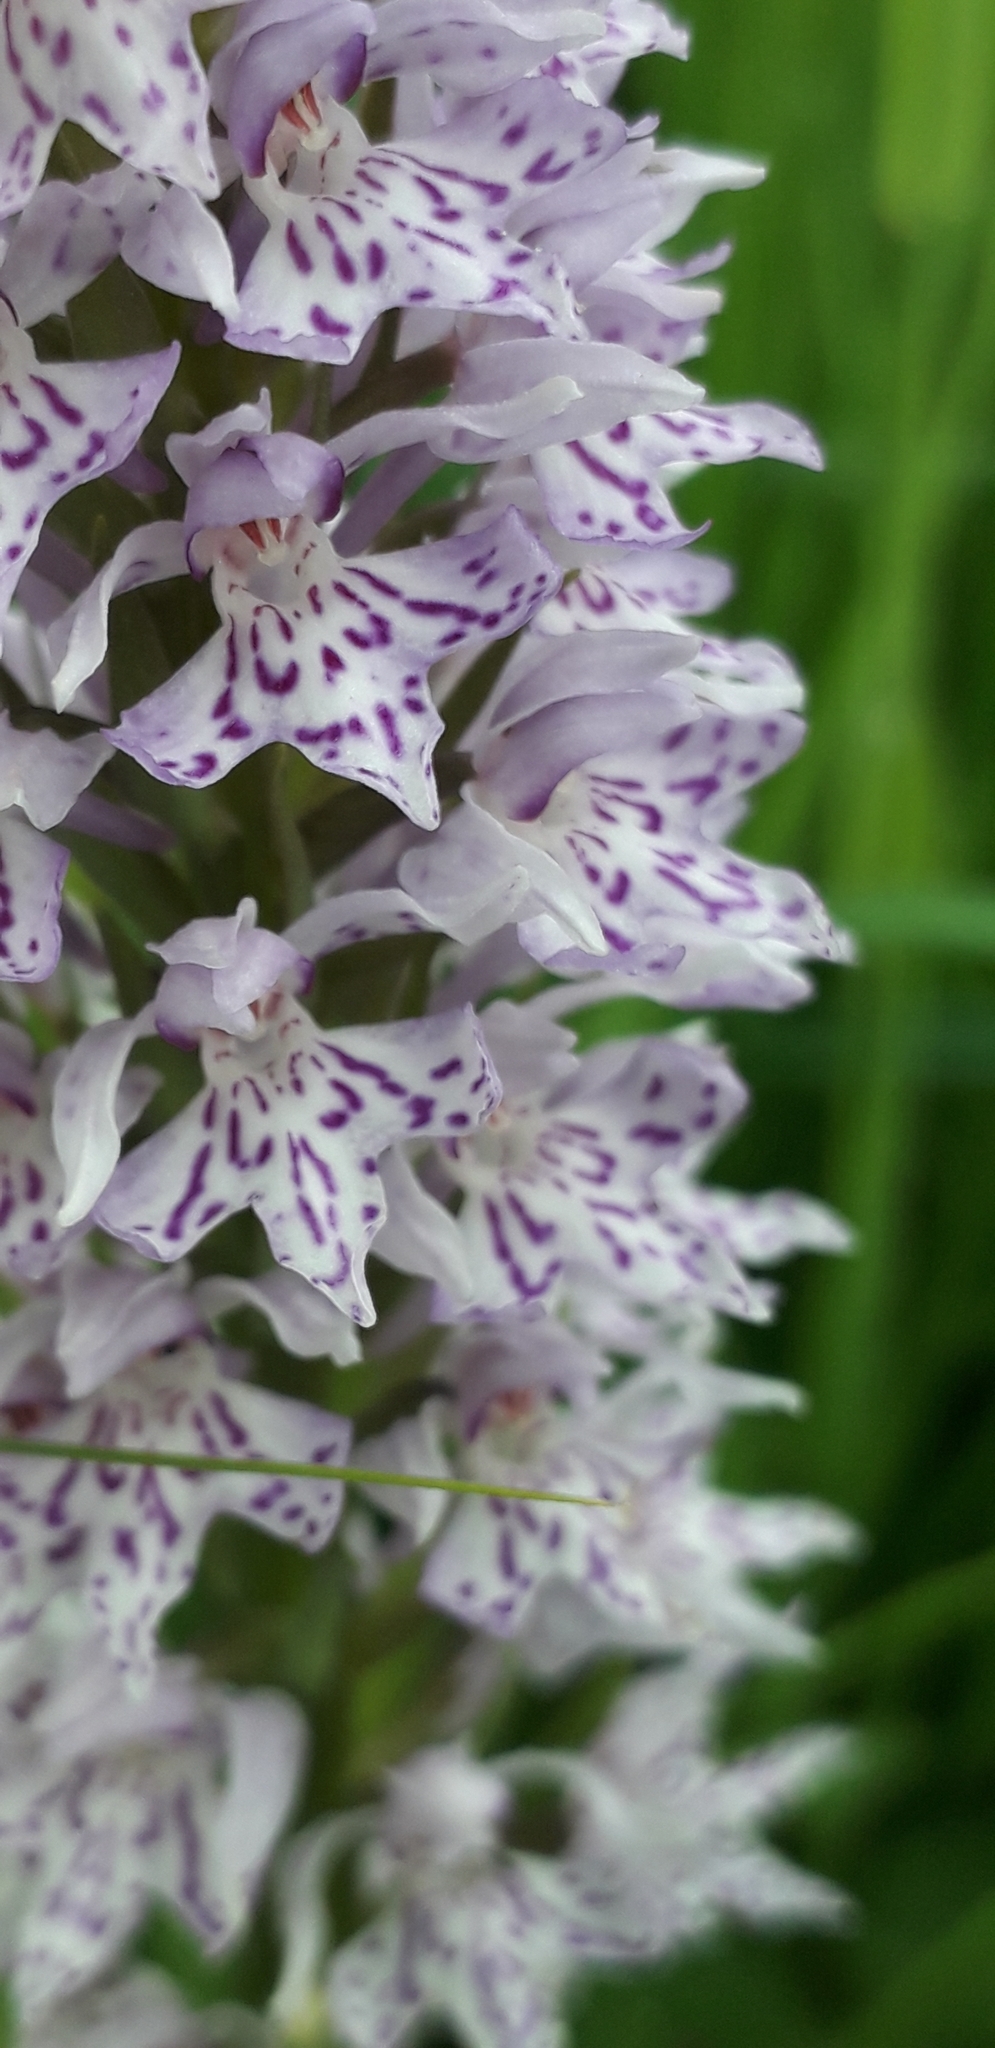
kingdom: Plantae
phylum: Tracheophyta
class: Liliopsida
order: Asparagales
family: Orchidaceae
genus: Dactylorhiza
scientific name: Dactylorhiza maculata
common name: Heath spotted-orchid
